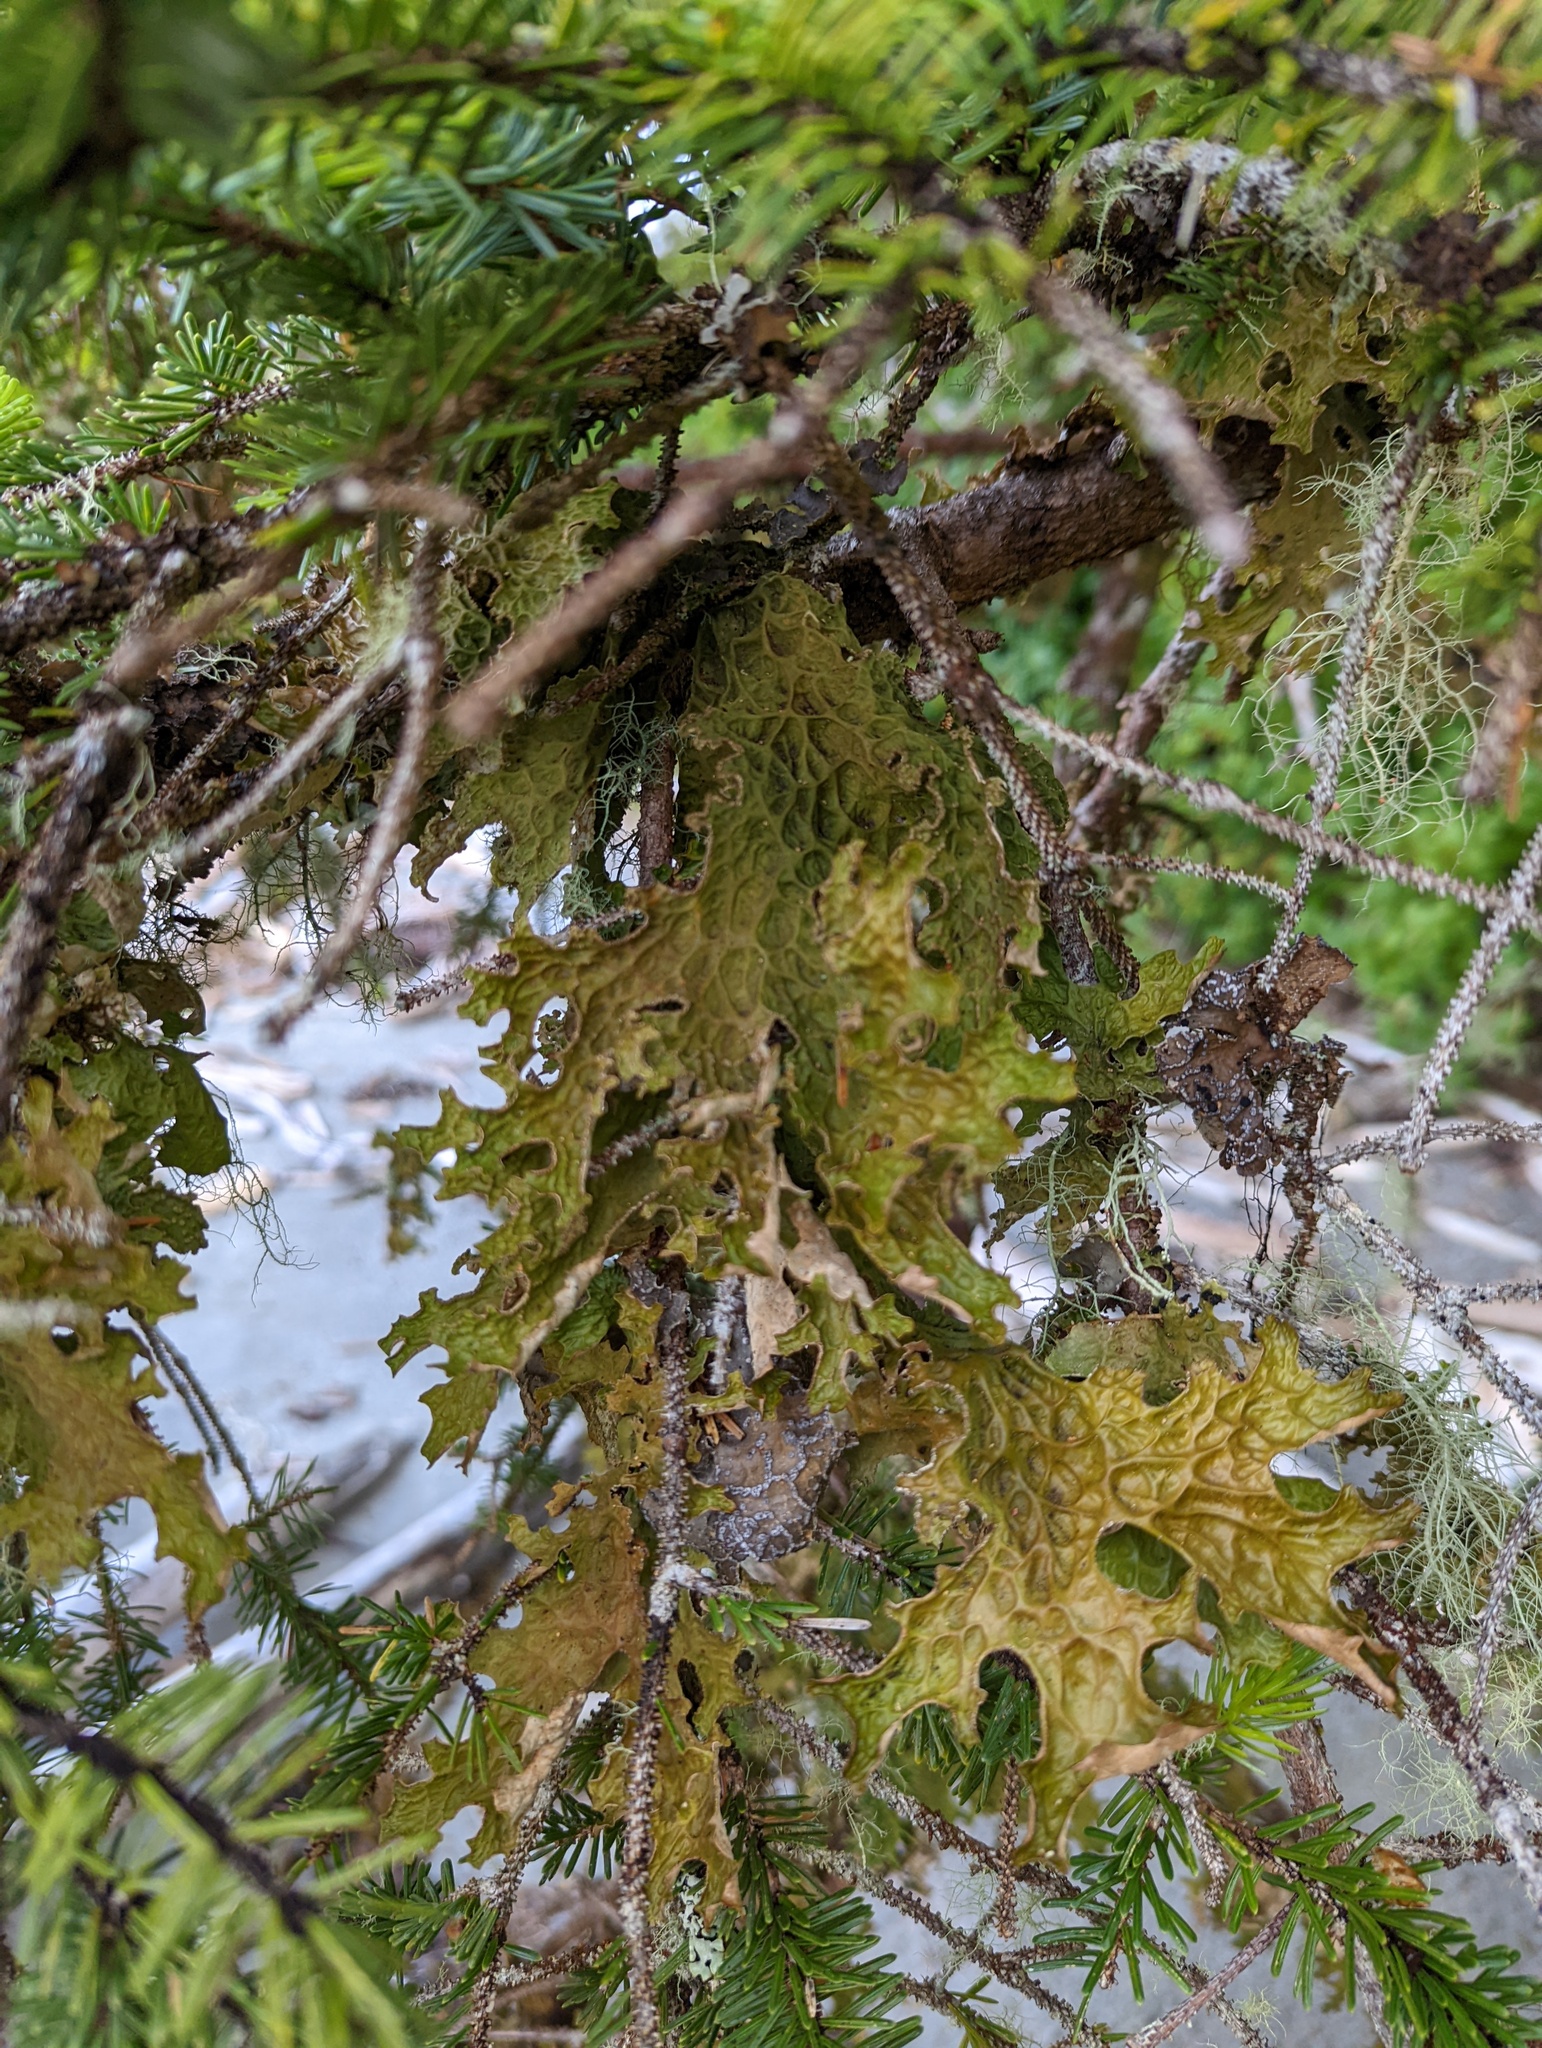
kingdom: Fungi
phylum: Ascomycota
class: Lecanoromycetes
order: Peltigerales
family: Lobariaceae
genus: Lobaria
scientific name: Lobaria pulmonaria
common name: Lungwort
